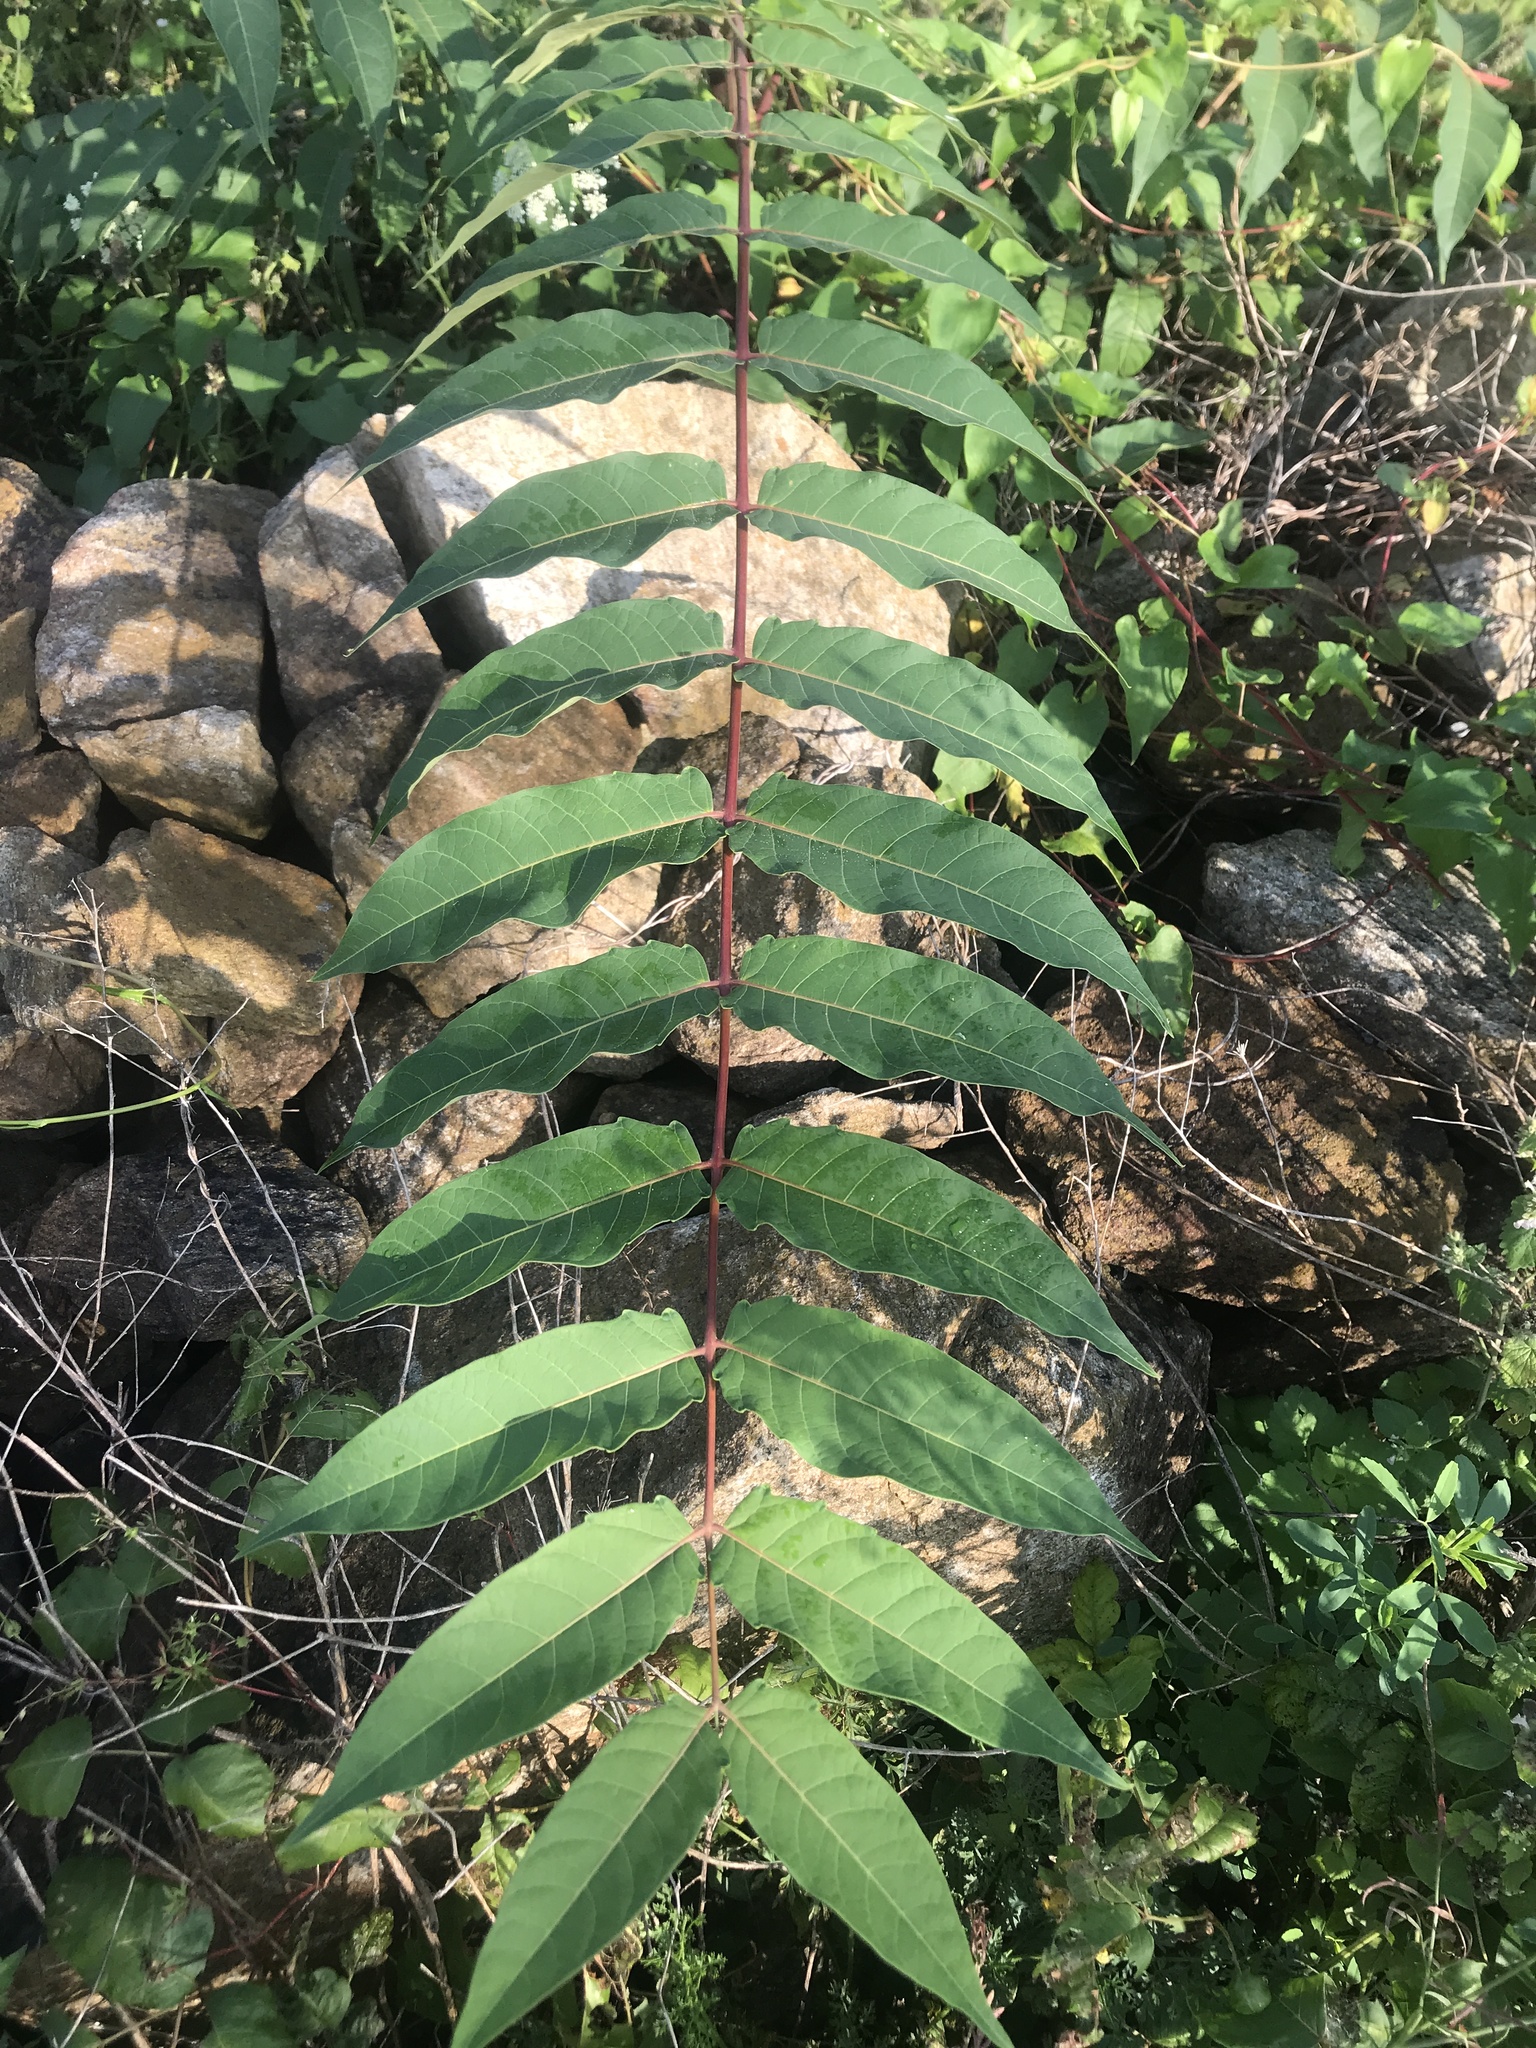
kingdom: Plantae
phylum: Tracheophyta
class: Magnoliopsida
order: Sapindales
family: Simaroubaceae
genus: Ailanthus
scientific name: Ailanthus altissima
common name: Tree-of-heaven
